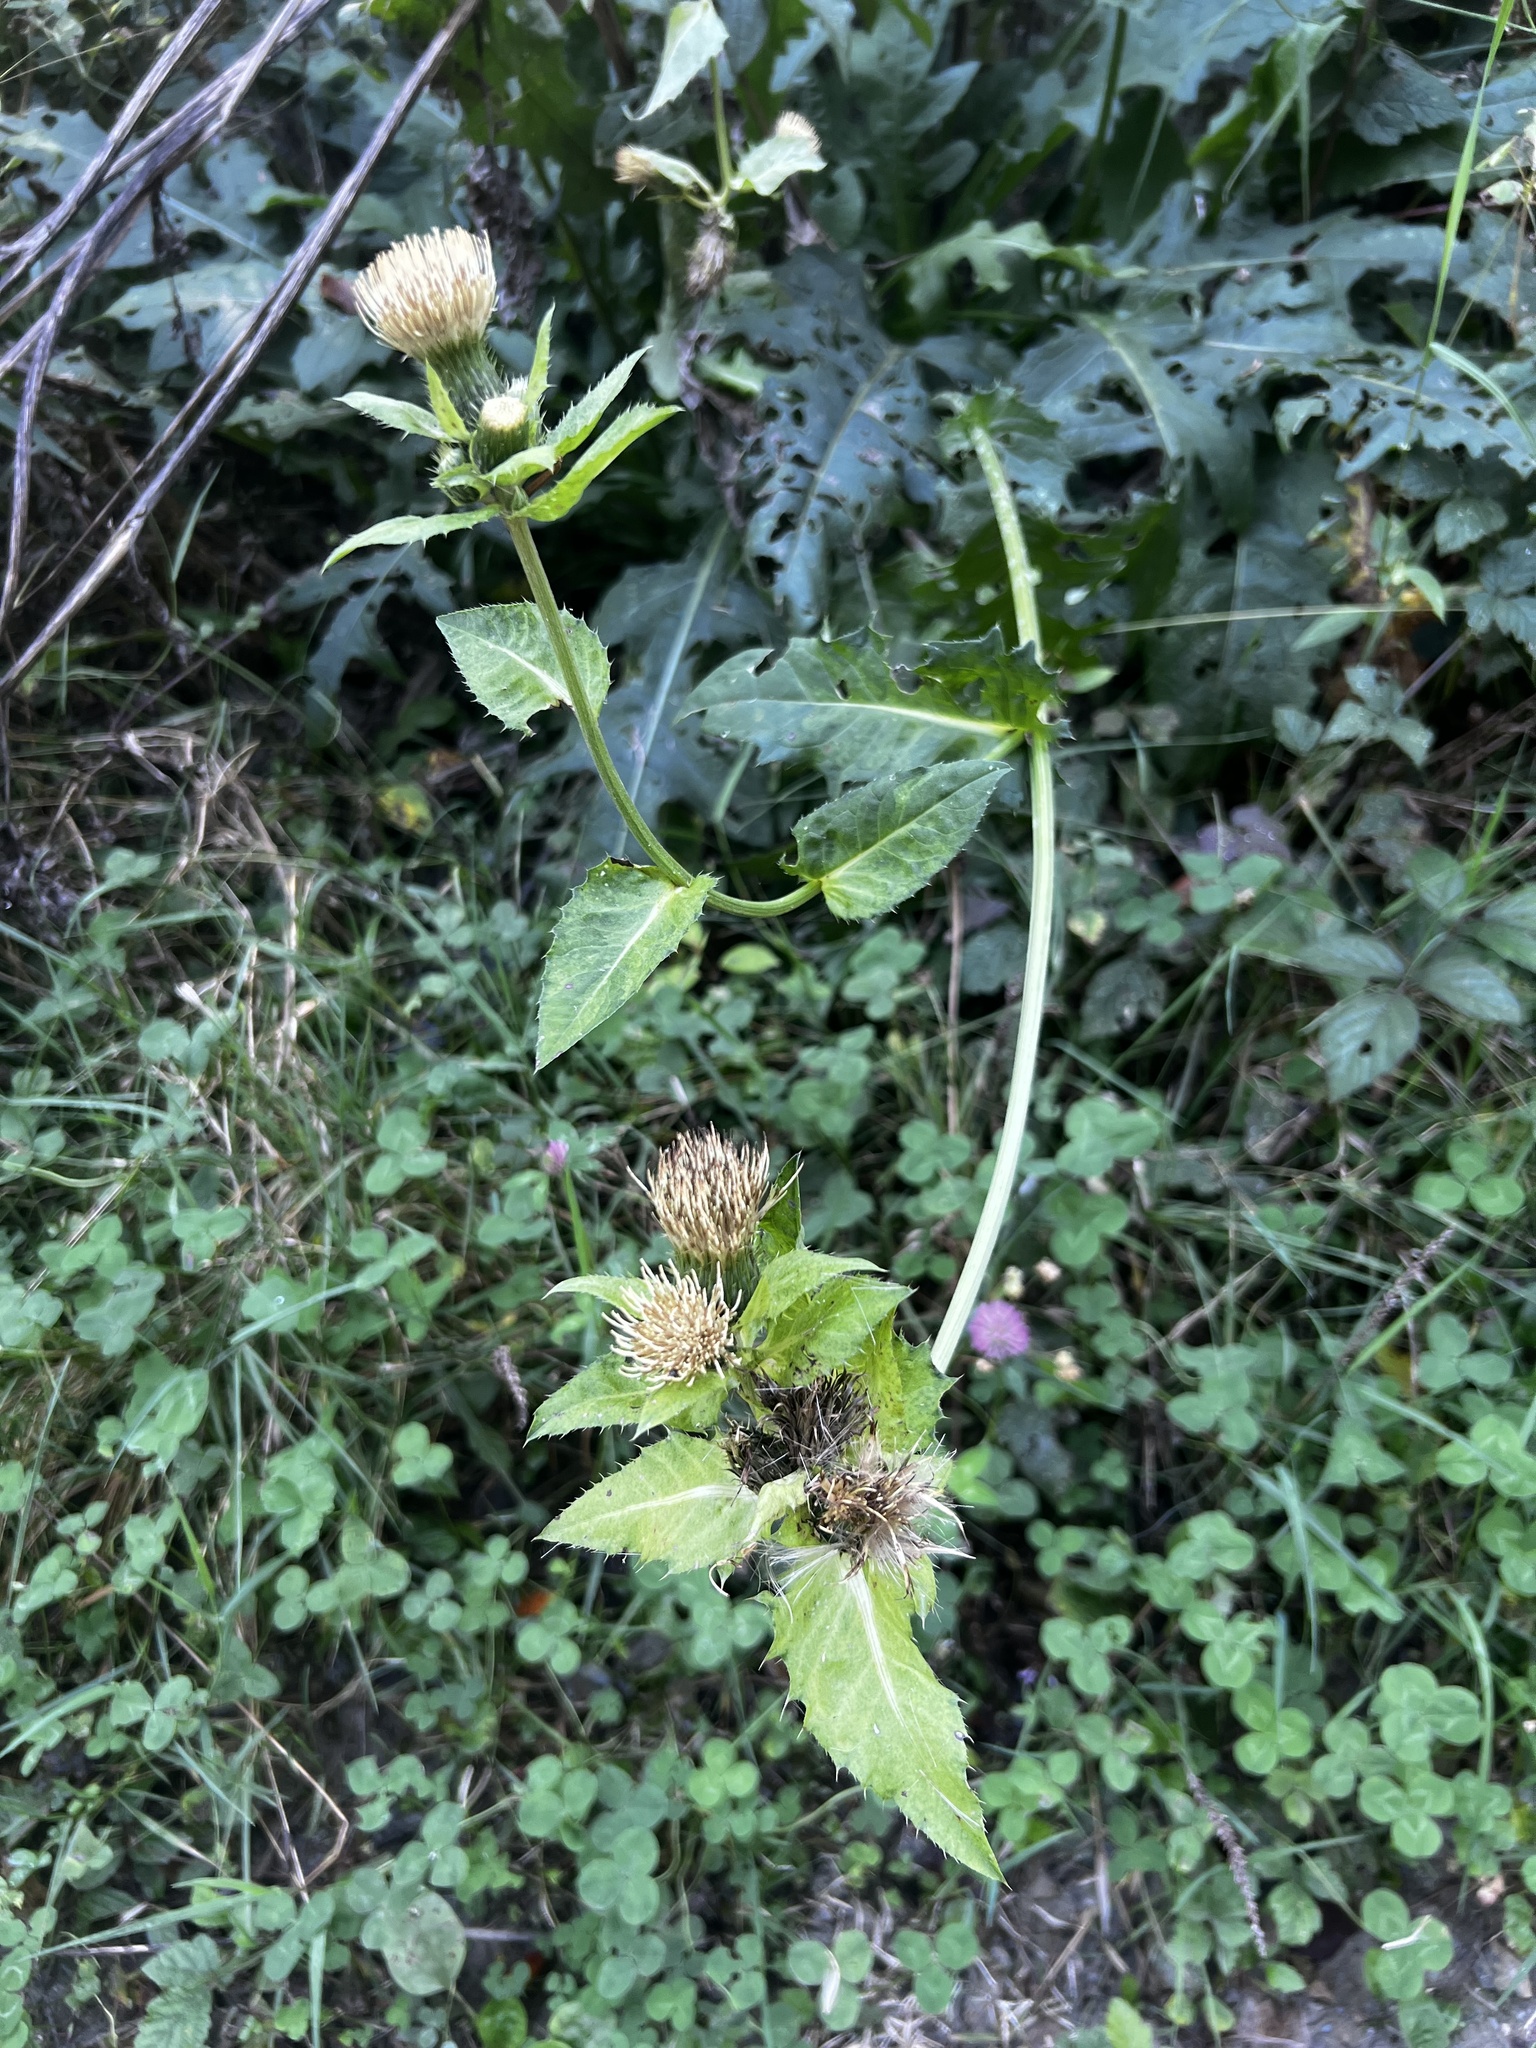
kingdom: Plantae
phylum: Tracheophyta
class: Magnoliopsida
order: Asterales
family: Asteraceae
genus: Cirsium
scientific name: Cirsium oleraceum
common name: Cabbage thistle
